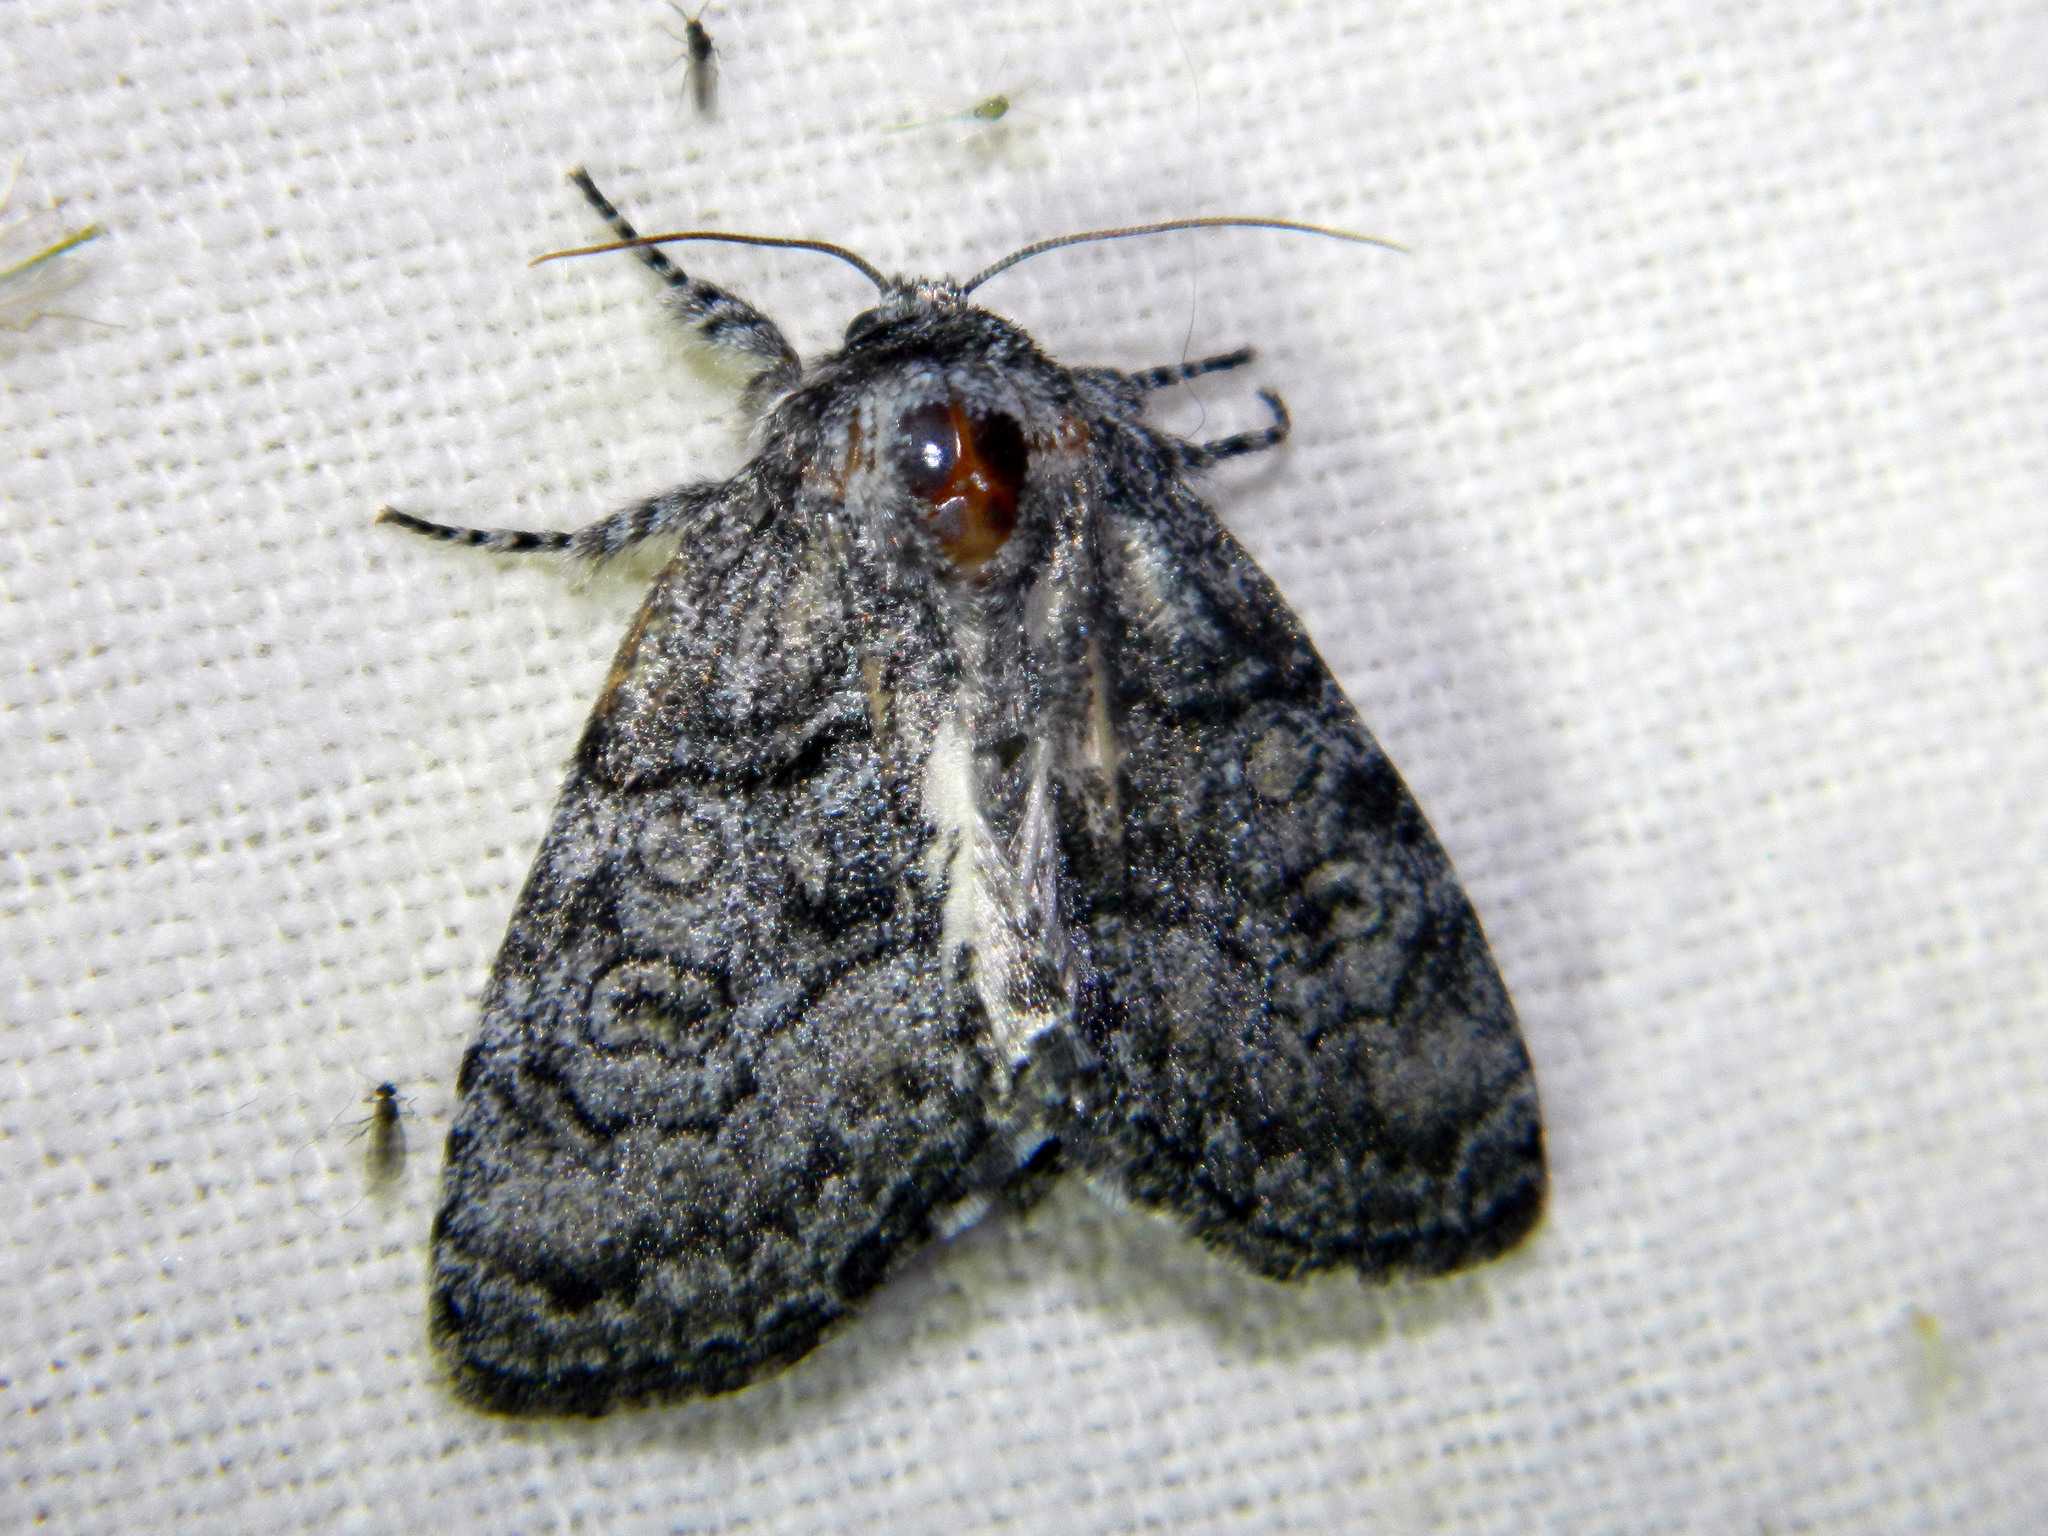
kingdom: Animalia
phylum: Arthropoda
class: Insecta
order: Lepidoptera
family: Noctuidae
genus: Raphia
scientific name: Raphia frater
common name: Brother
